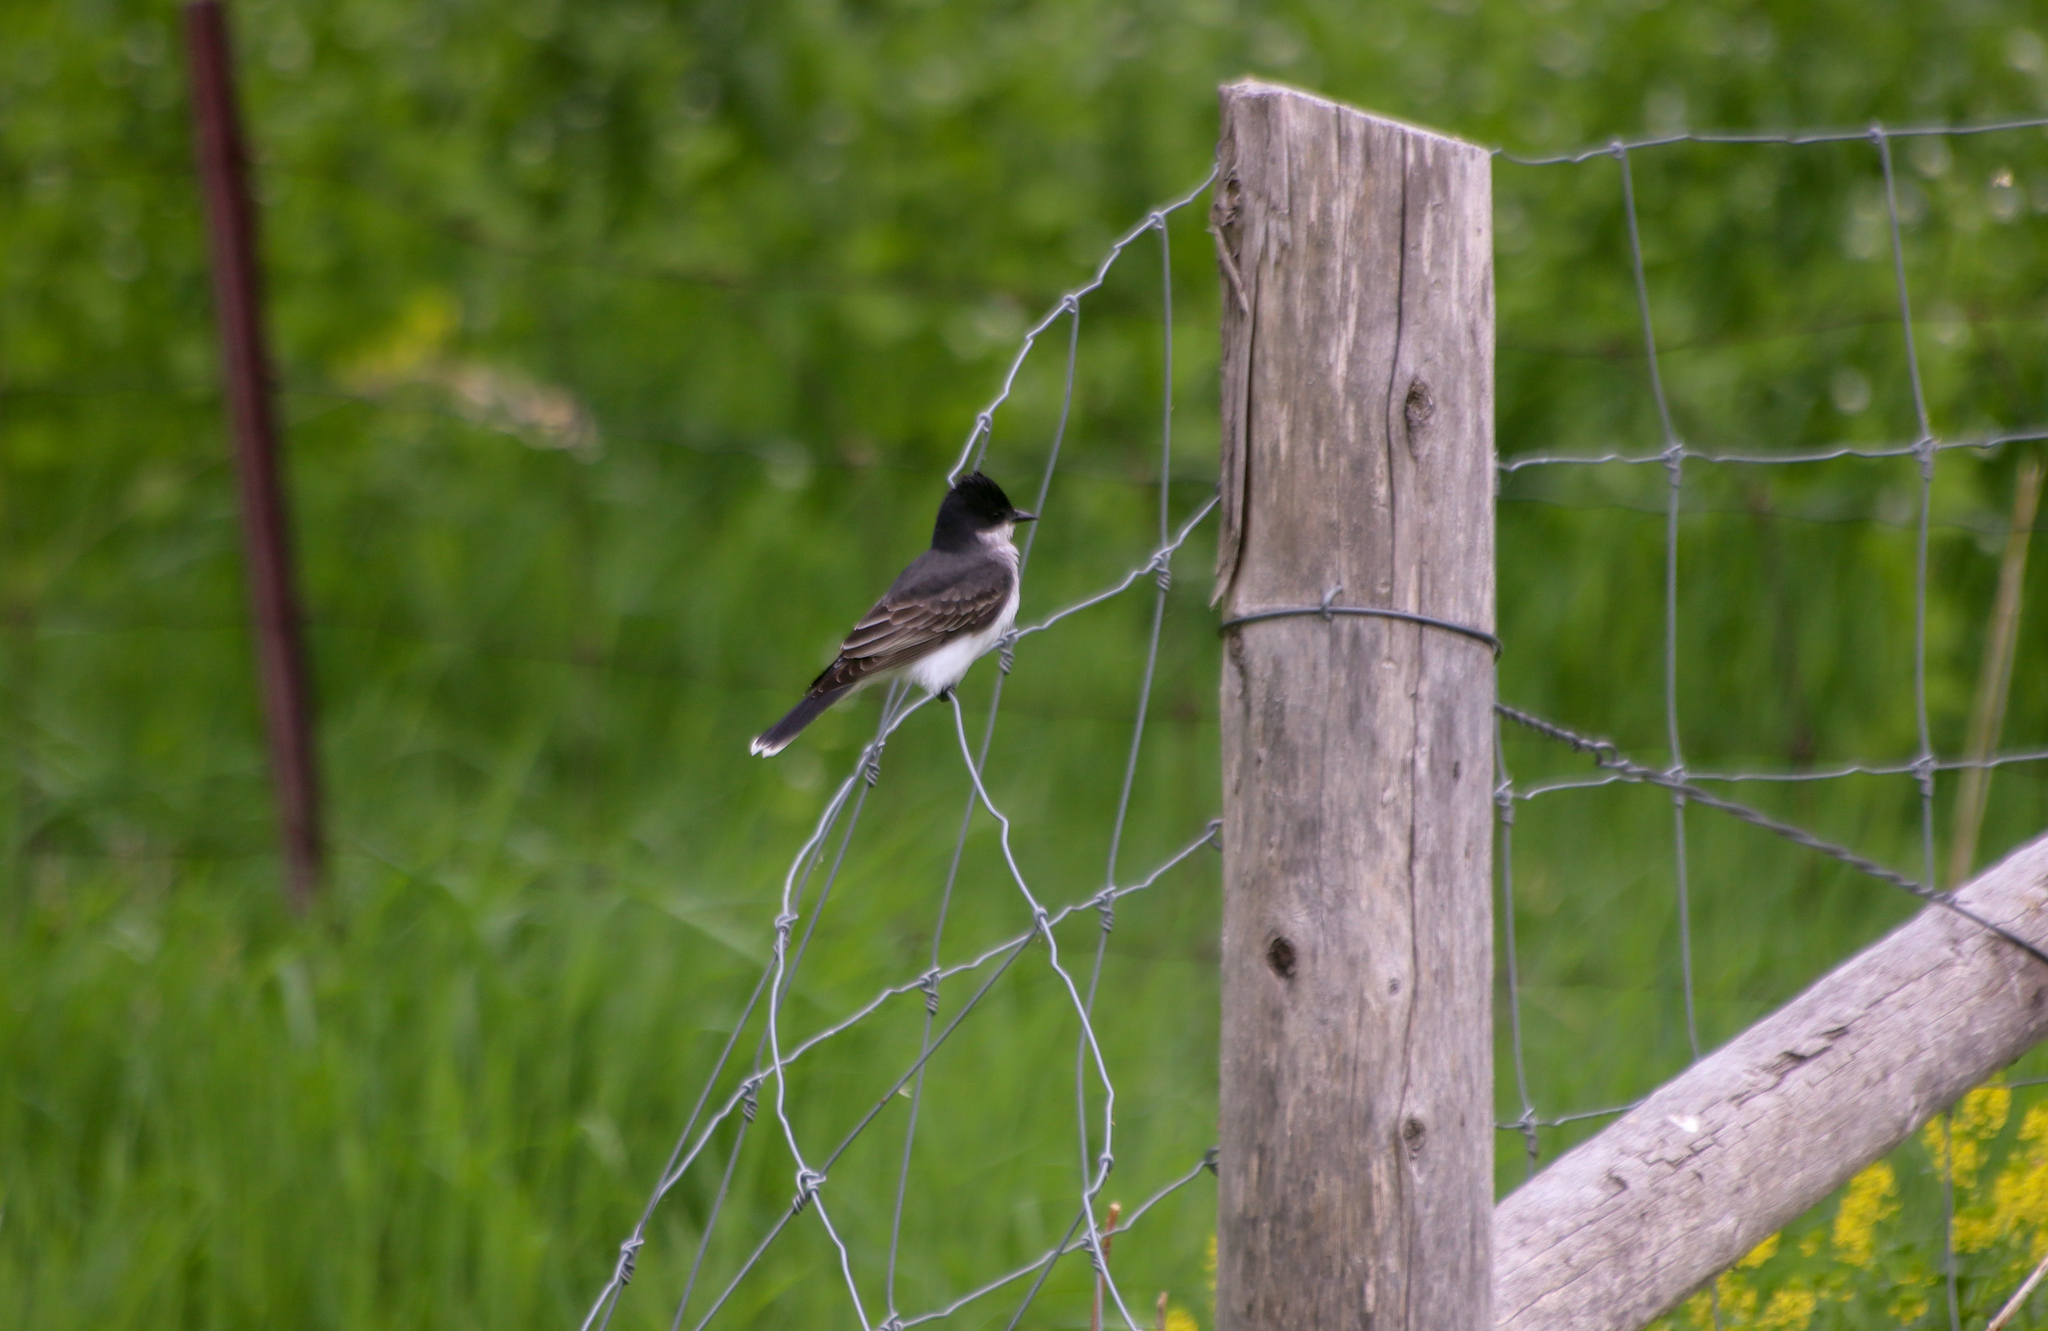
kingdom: Animalia
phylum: Chordata
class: Aves
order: Passeriformes
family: Tyrannidae
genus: Tyrannus
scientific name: Tyrannus tyrannus
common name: Eastern kingbird
